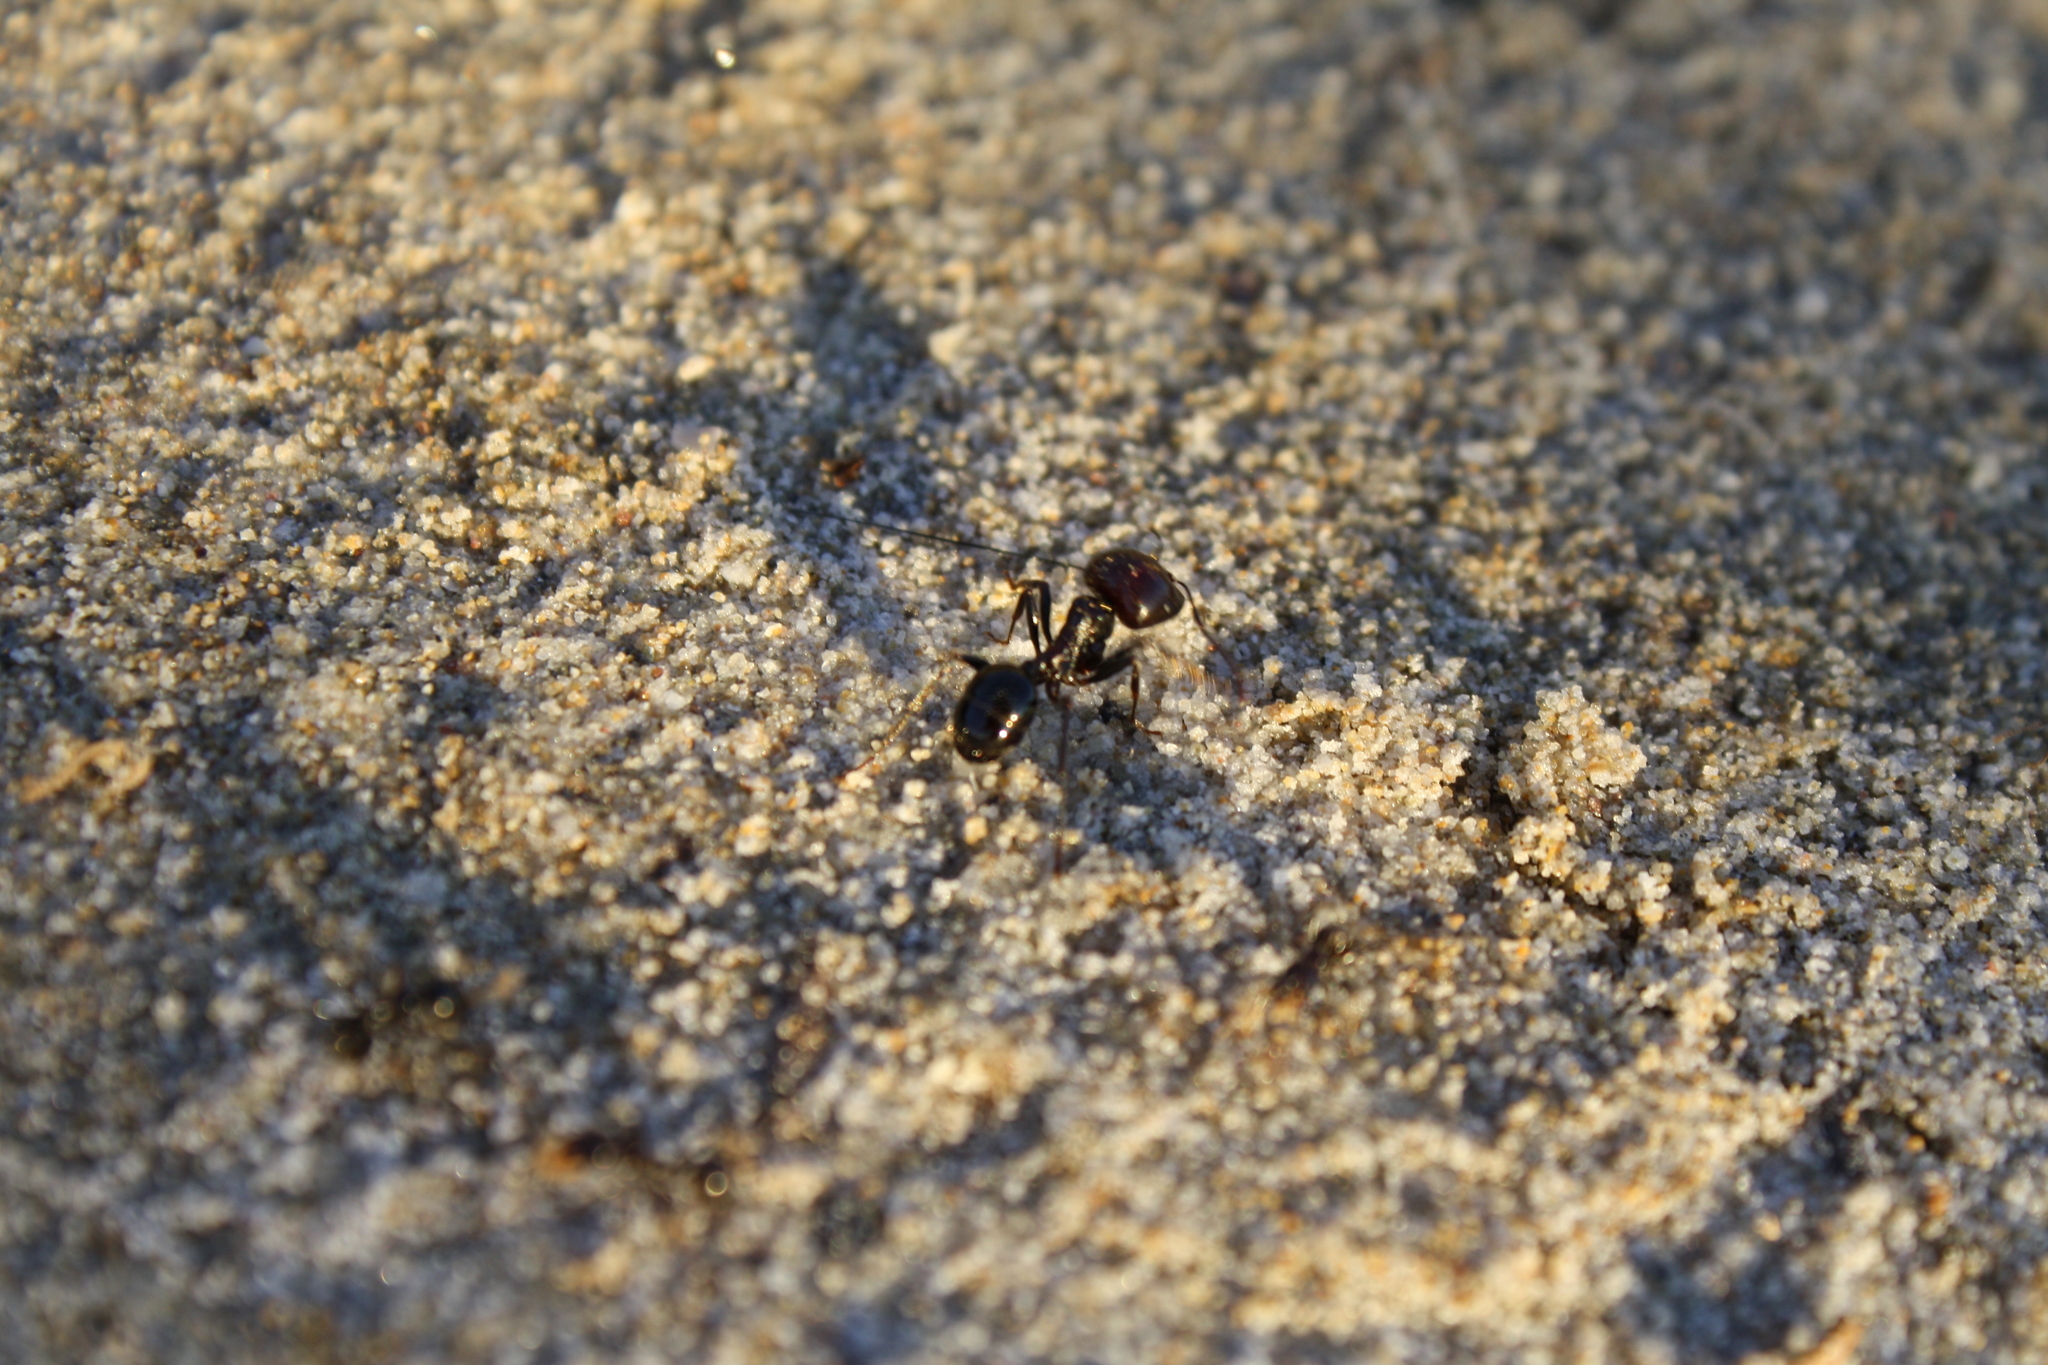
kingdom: Animalia
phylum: Arthropoda
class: Insecta
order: Hymenoptera
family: Formicidae
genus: Messor
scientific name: Messor barbarus
